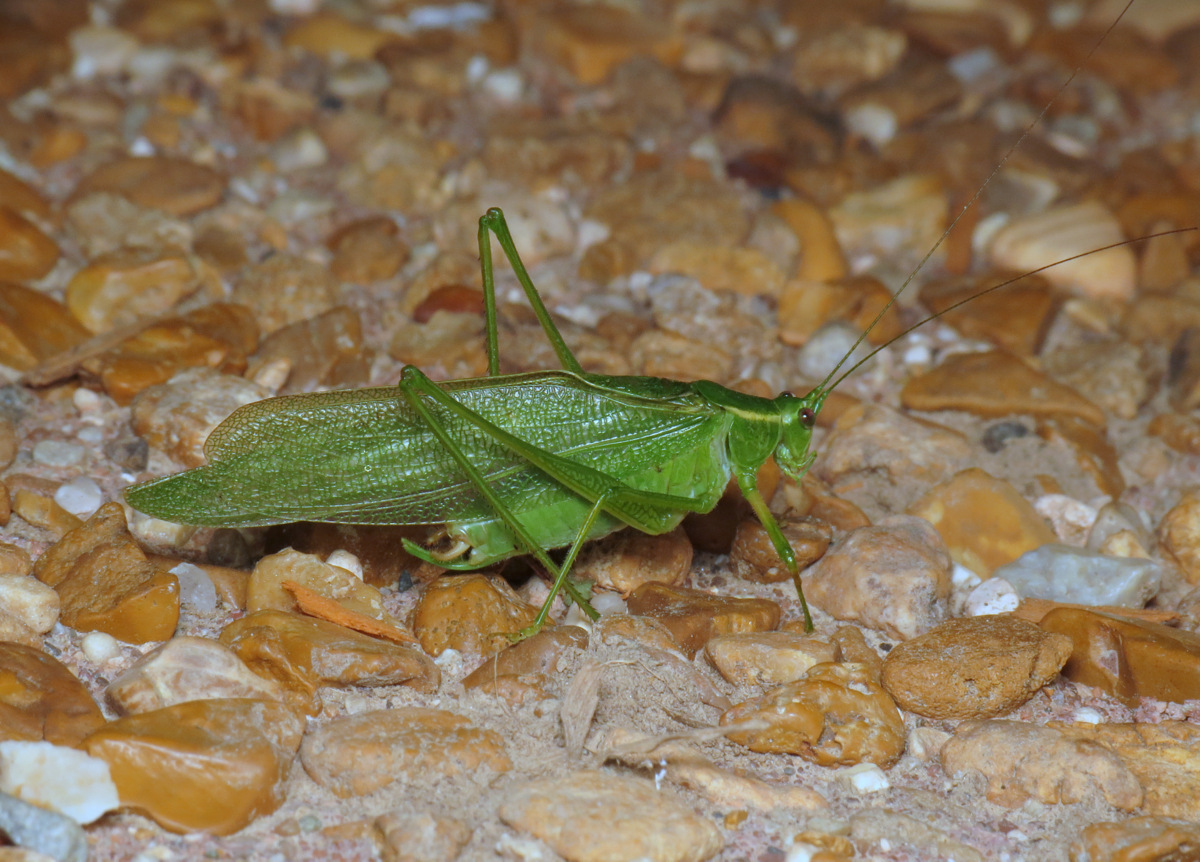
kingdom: Animalia
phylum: Arthropoda
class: Insecta
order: Orthoptera
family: Tettigoniidae
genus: Scudderia
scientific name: Scudderia septentrionalis
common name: Northern bush-katydid
